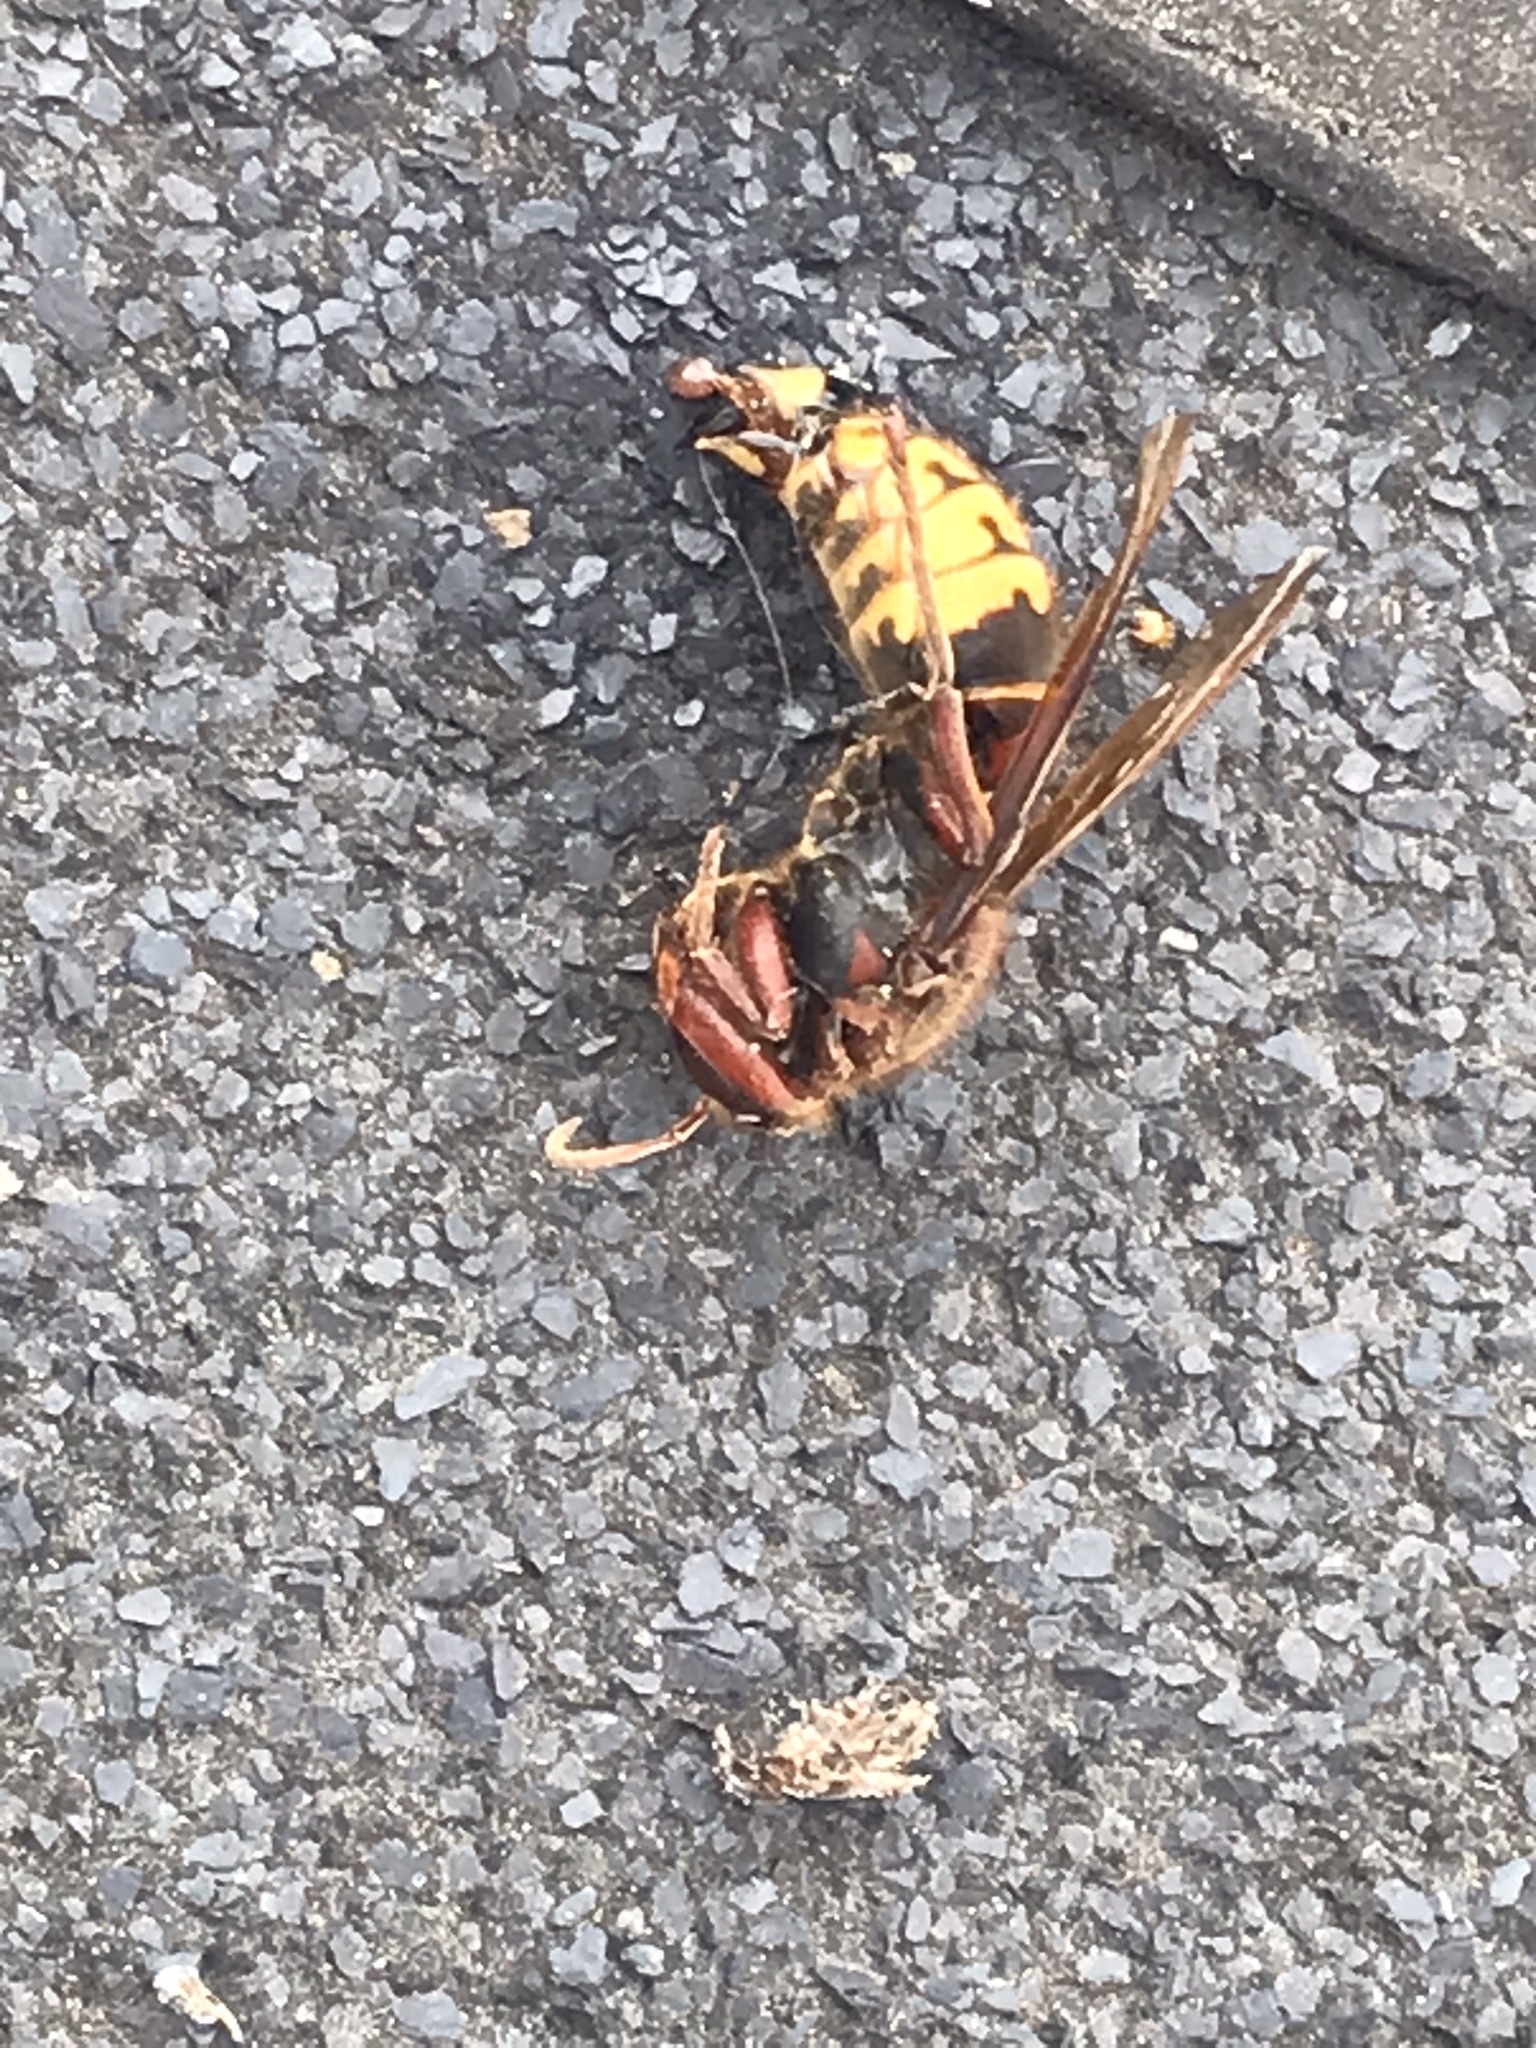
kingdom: Animalia
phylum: Arthropoda
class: Insecta
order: Hymenoptera
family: Vespidae
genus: Vespa
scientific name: Vespa crabro
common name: Hornet
